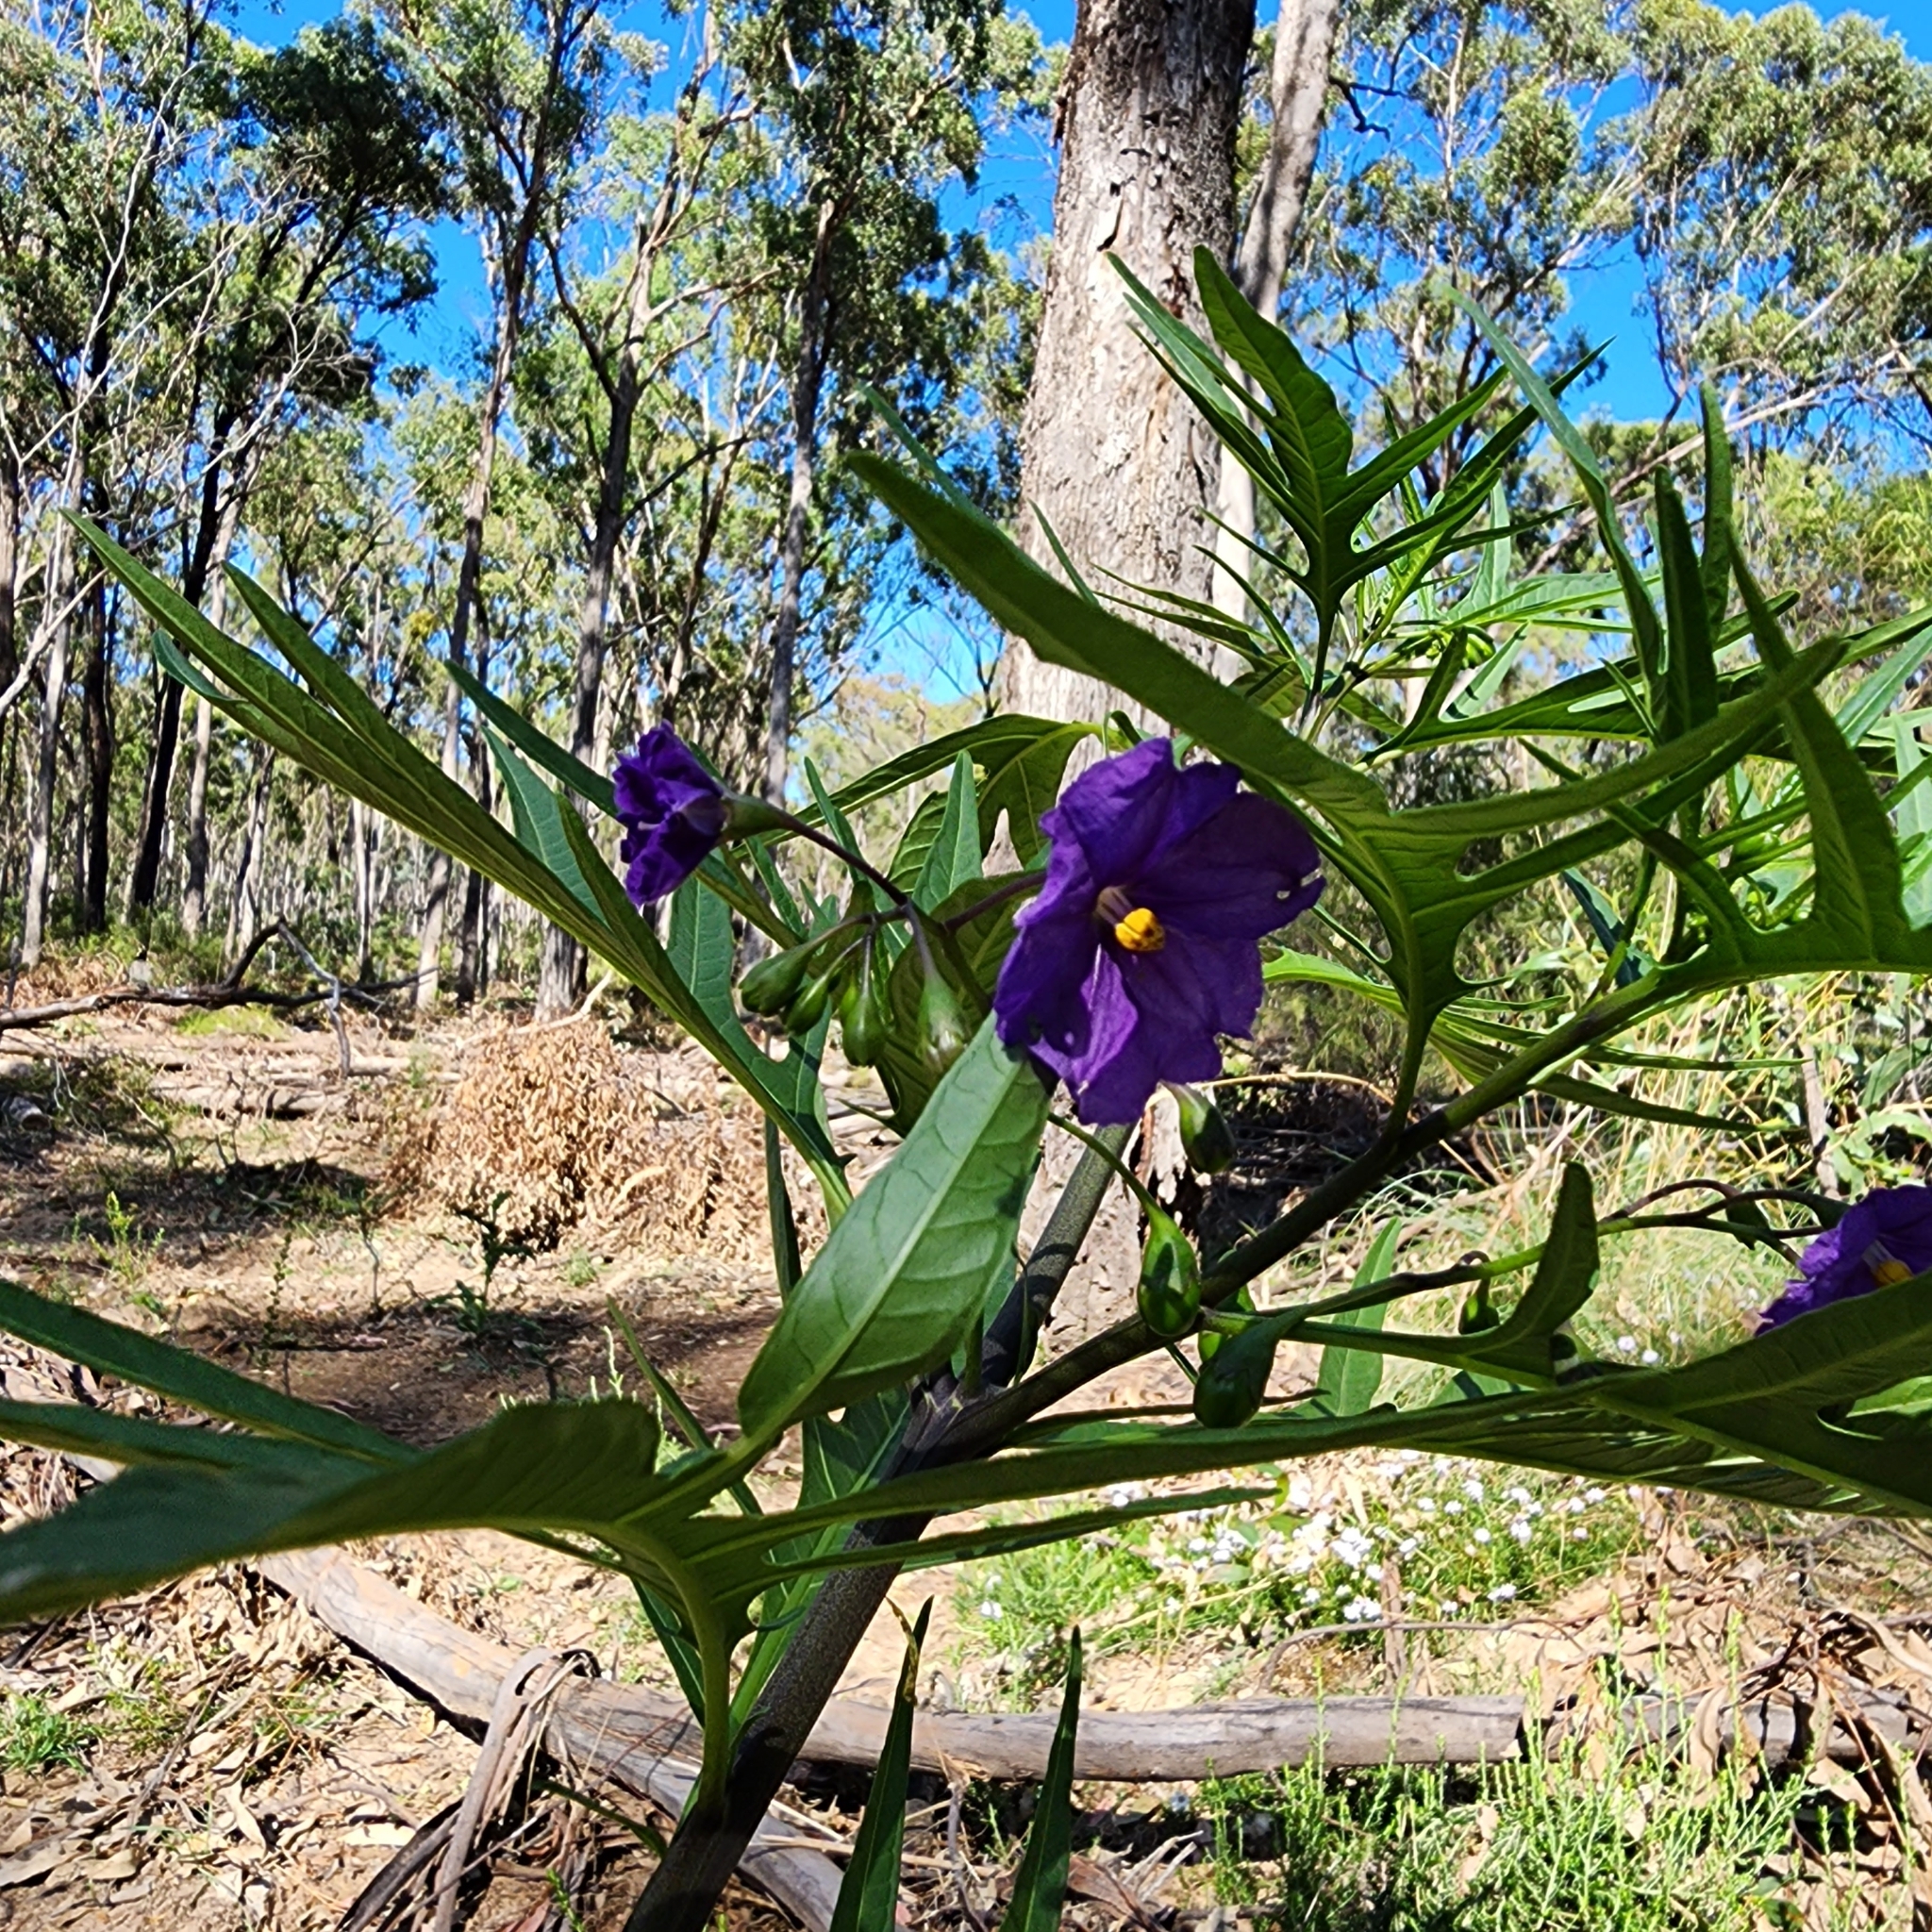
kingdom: Plantae
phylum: Tracheophyta
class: Magnoliopsida
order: Solanales
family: Solanaceae
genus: Solanum
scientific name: Solanum laciniatum
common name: Kangaroo-apple
